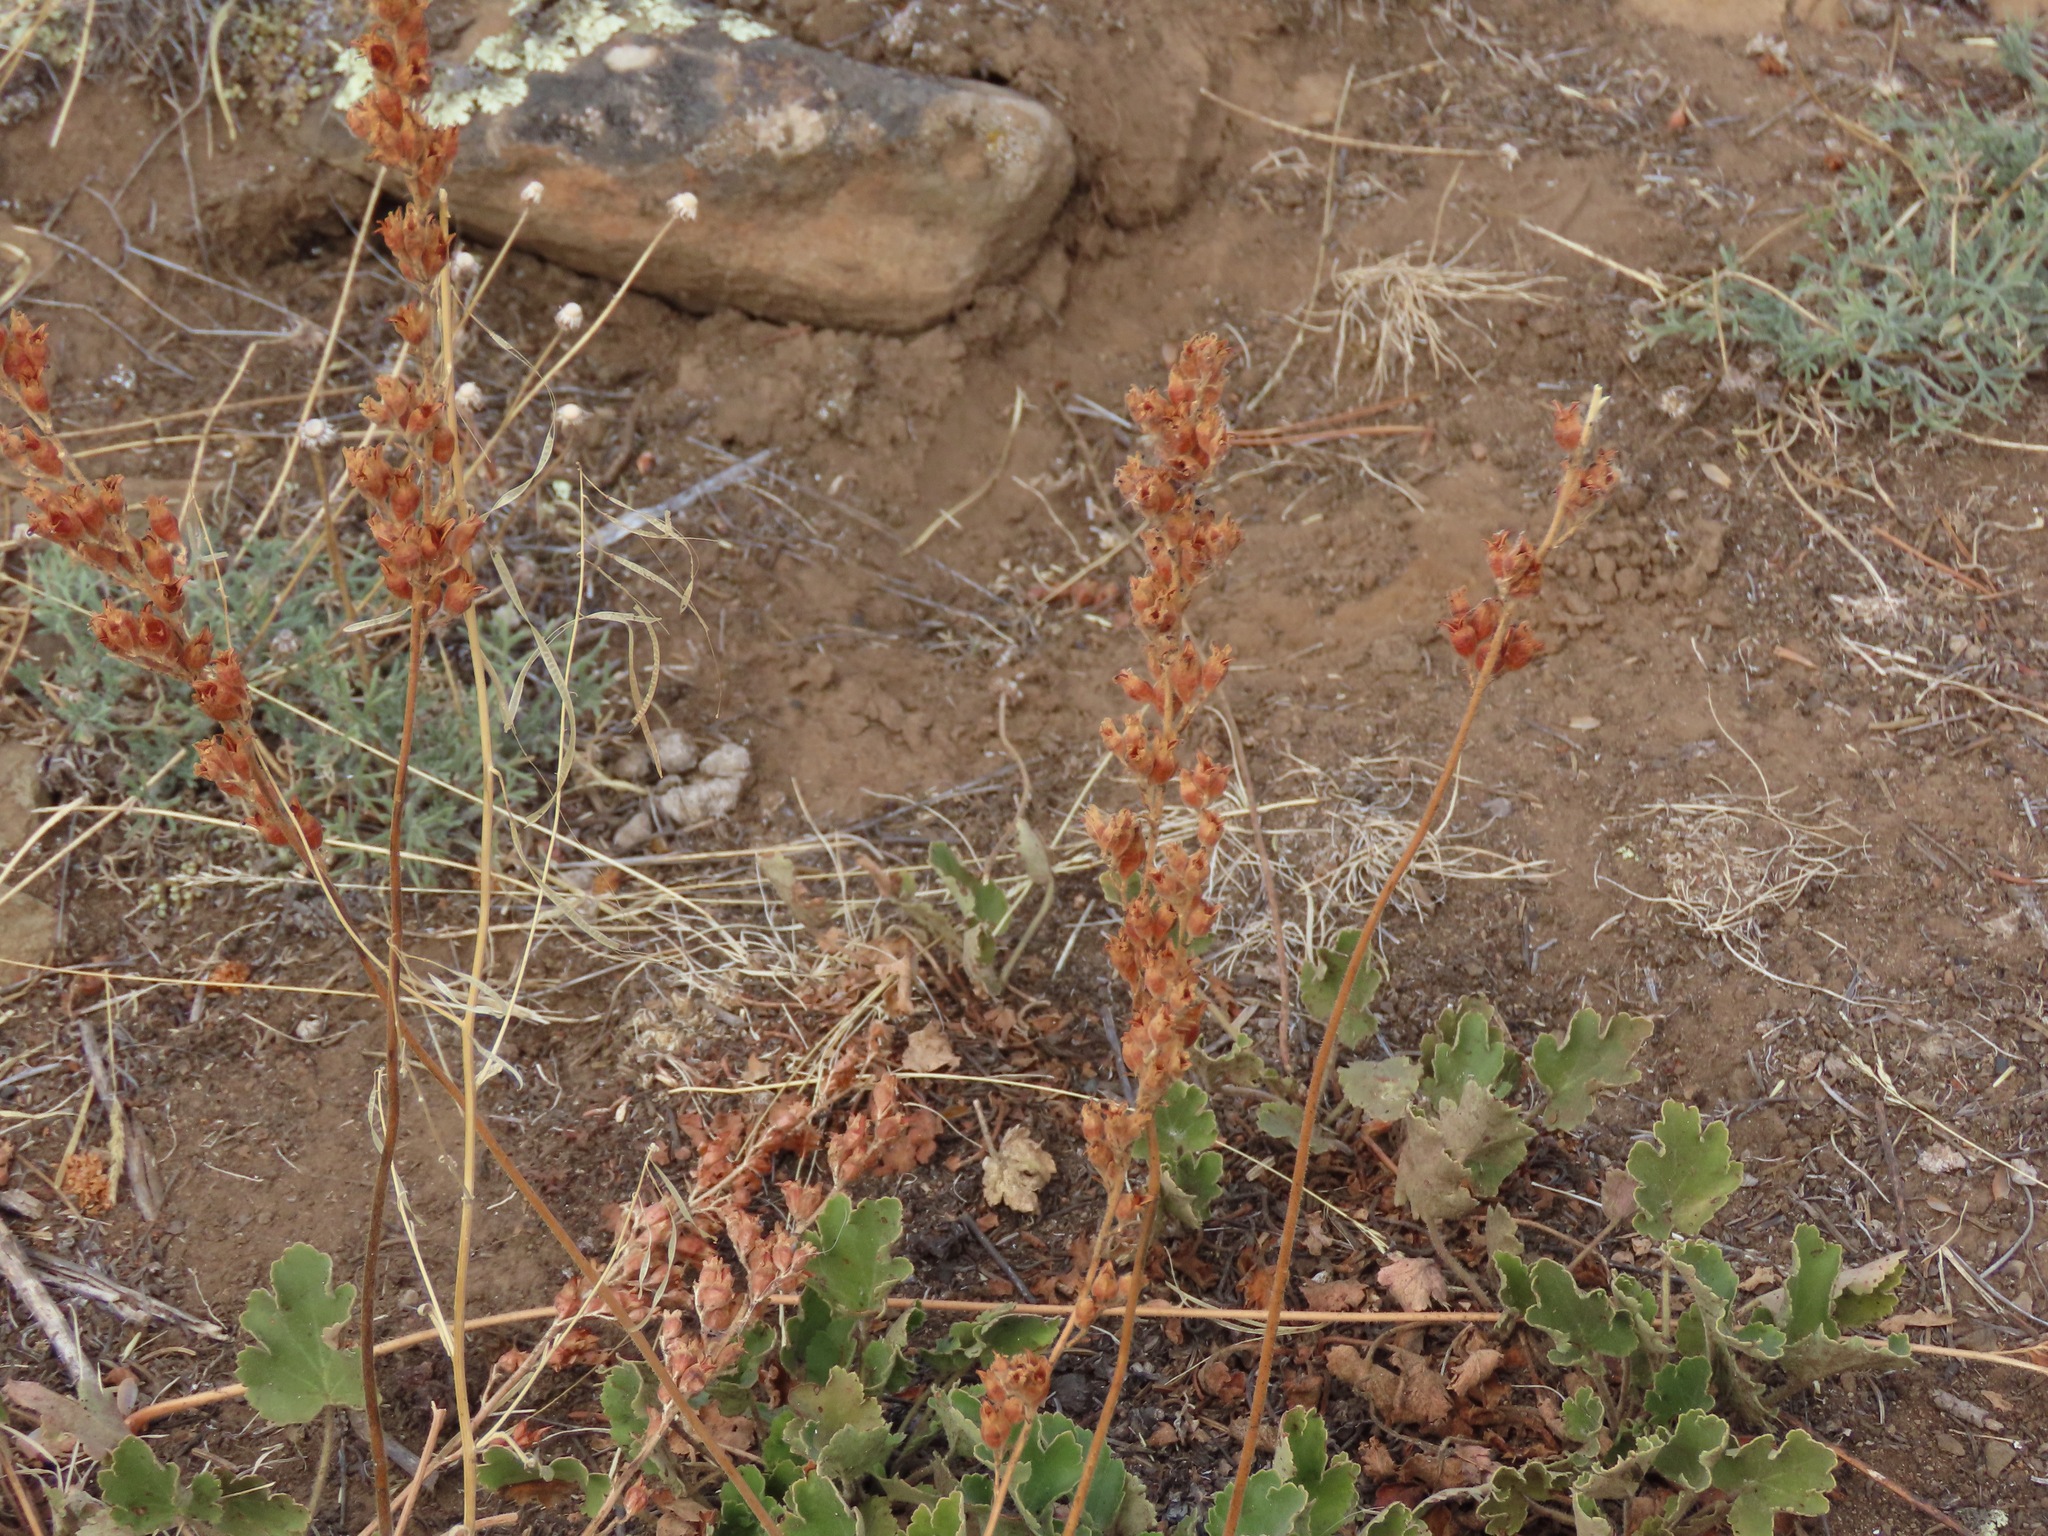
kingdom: Plantae
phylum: Tracheophyta
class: Magnoliopsida
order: Saxifragales
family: Saxifragaceae
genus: Heuchera
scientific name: Heuchera cylindrica
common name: Mat alumroot
